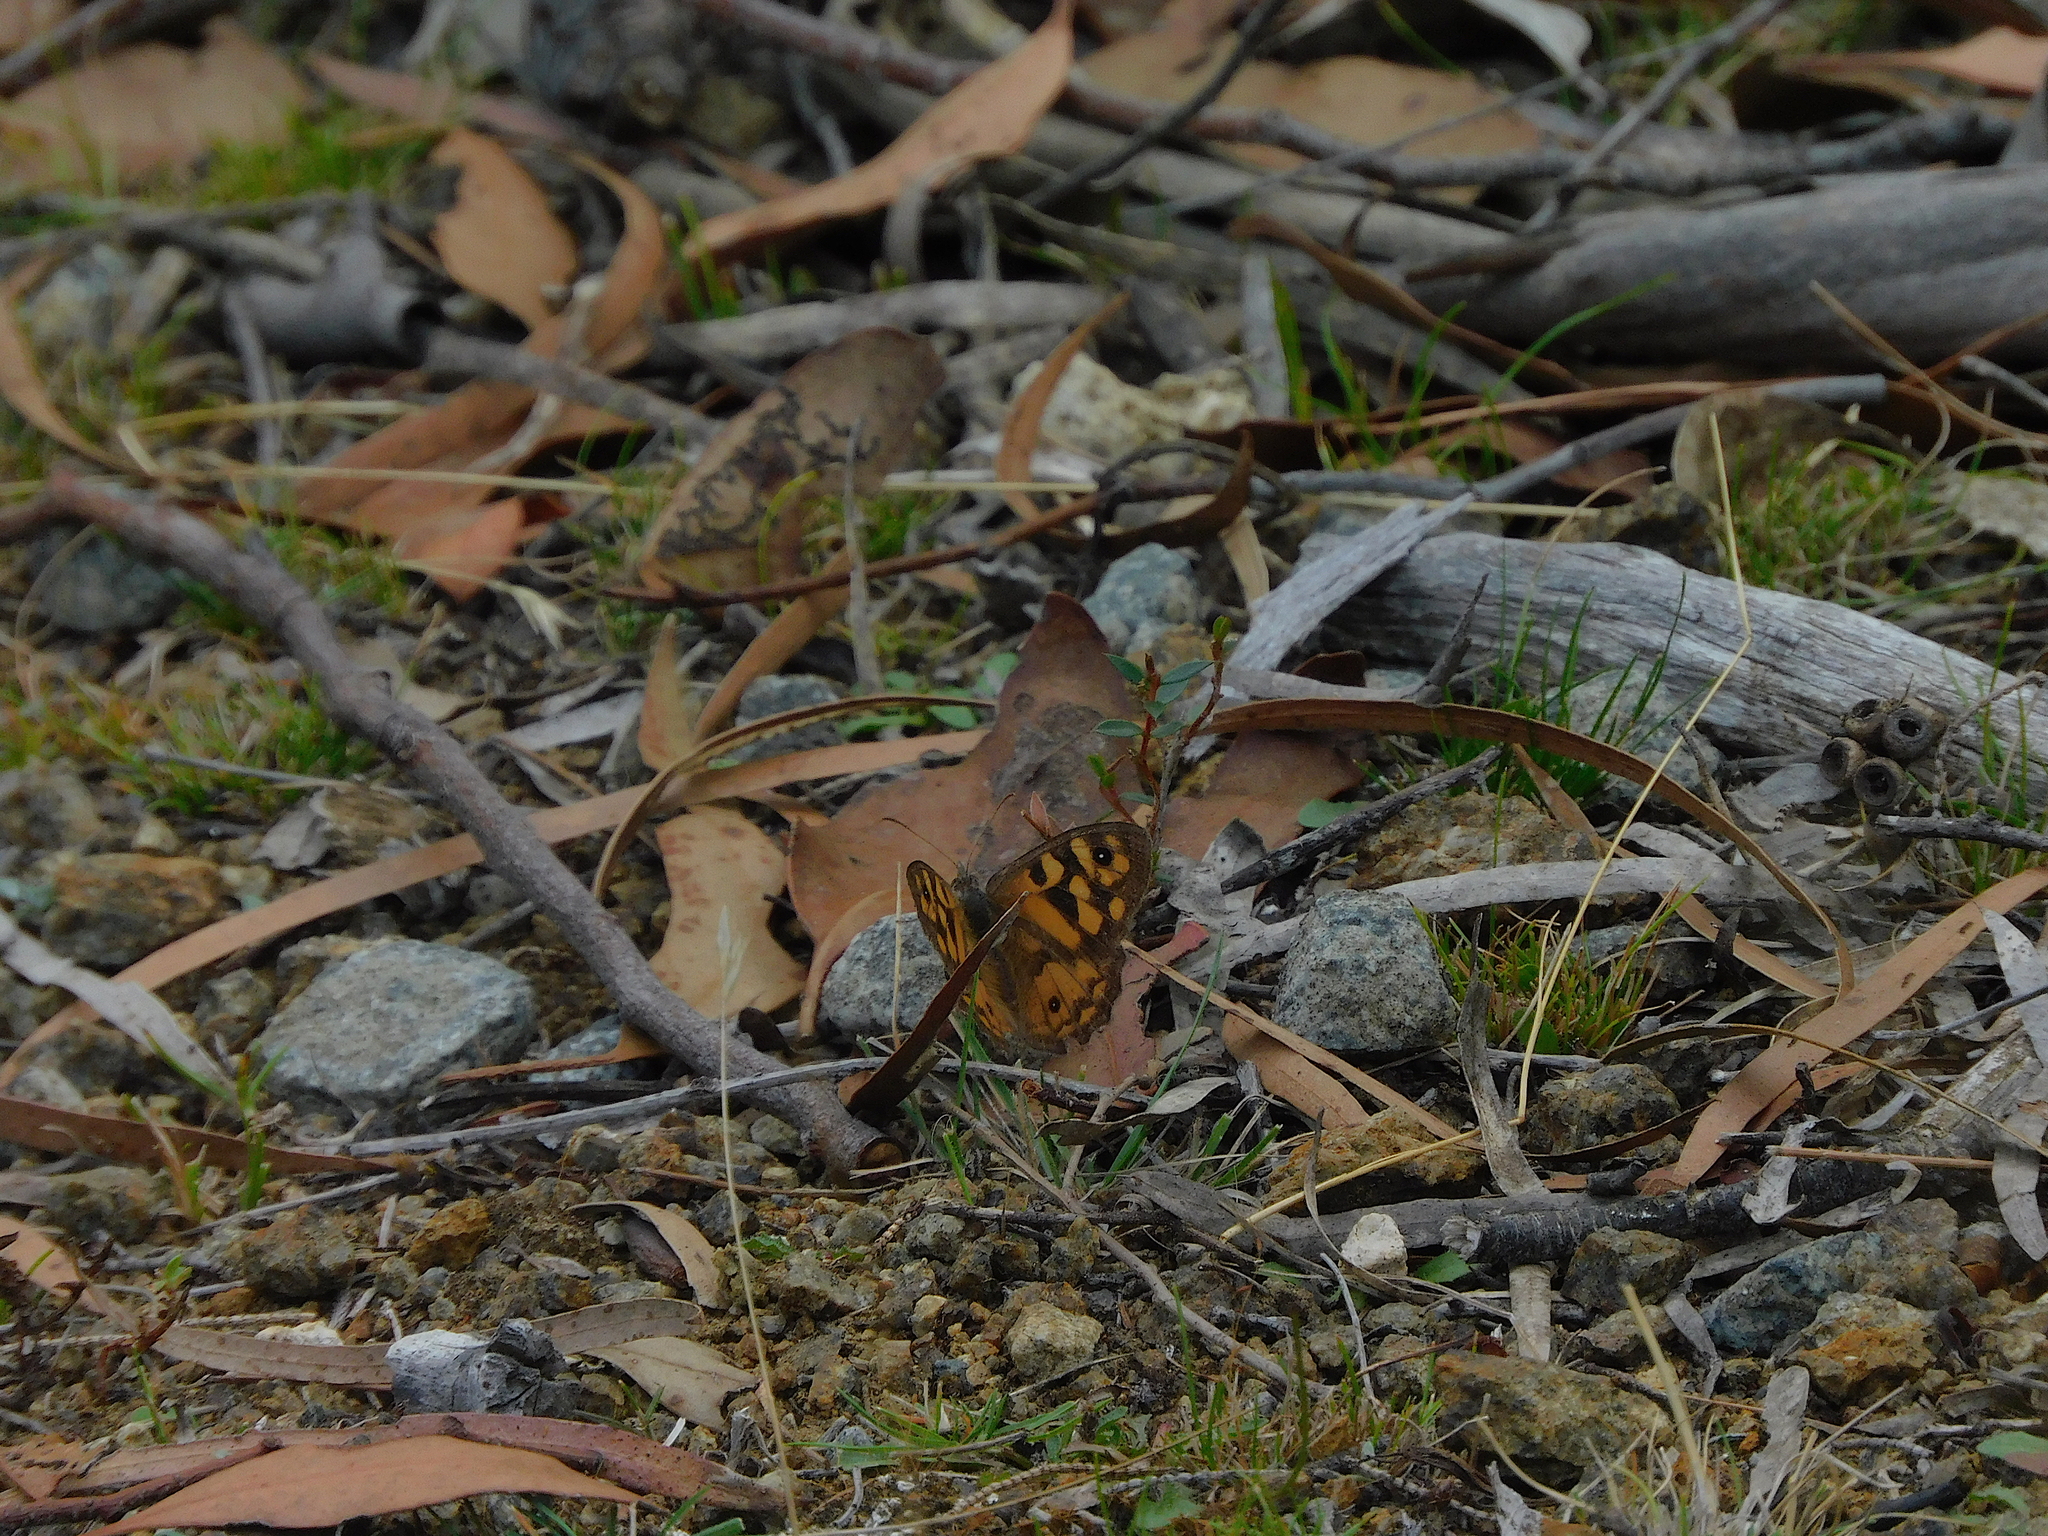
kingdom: Animalia
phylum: Arthropoda
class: Insecta
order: Lepidoptera
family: Nymphalidae
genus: Geitoneura
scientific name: Geitoneura klugii
